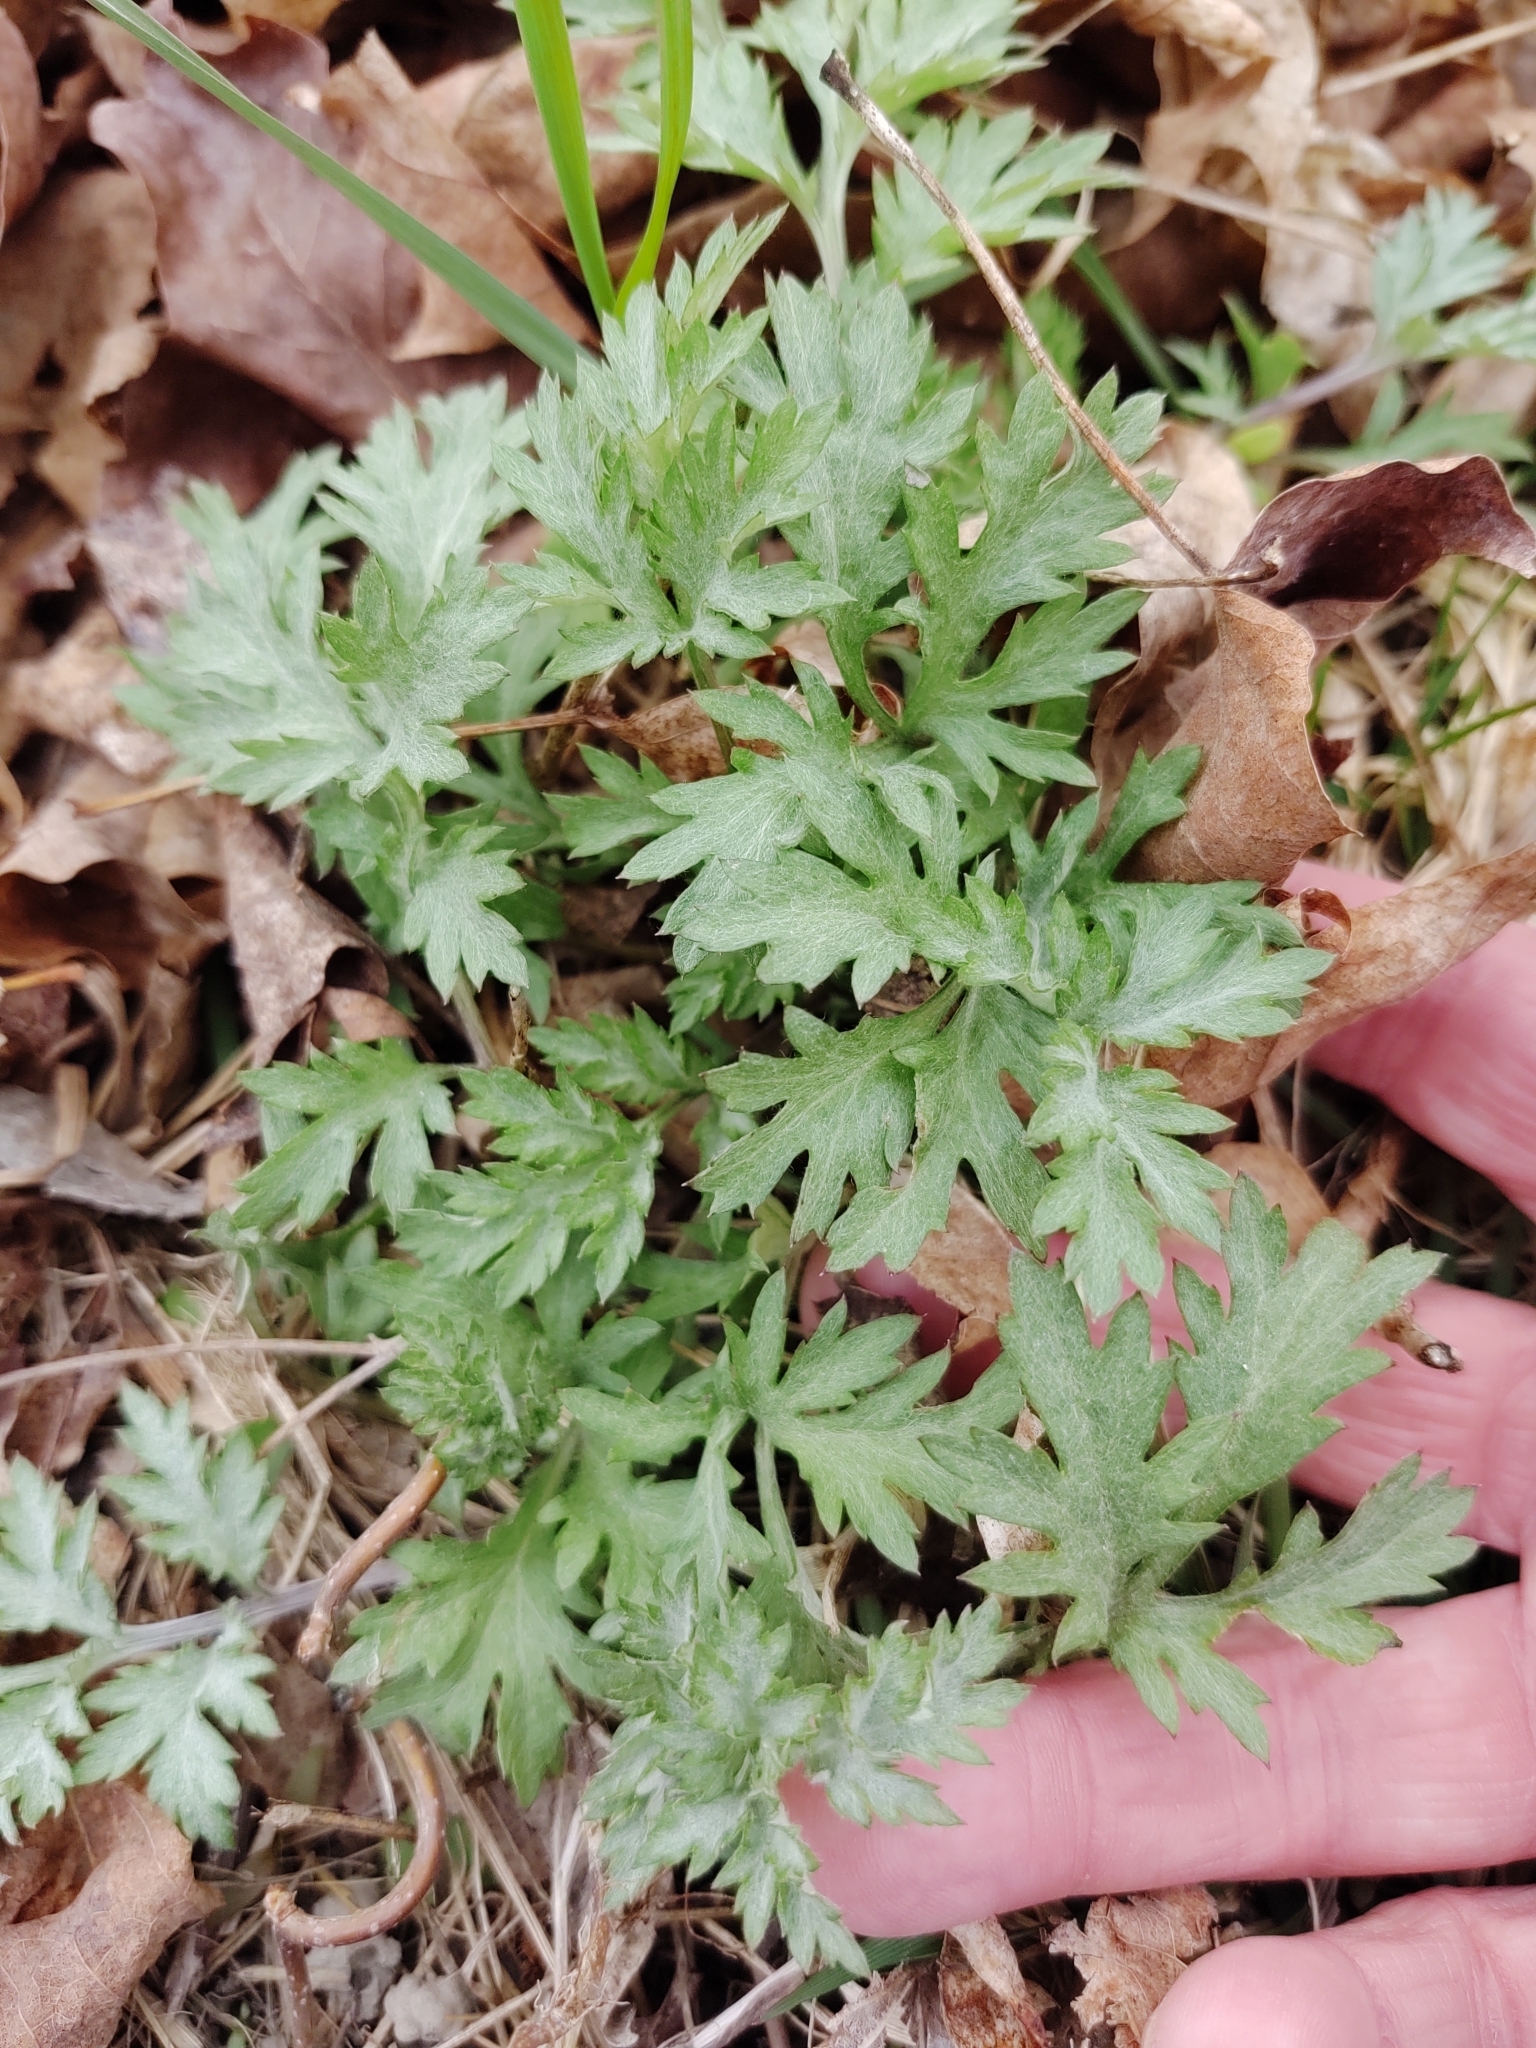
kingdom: Plantae
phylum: Tracheophyta
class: Magnoliopsida
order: Asterales
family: Asteraceae
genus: Artemisia
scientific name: Artemisia vulgaris
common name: Mugwort
